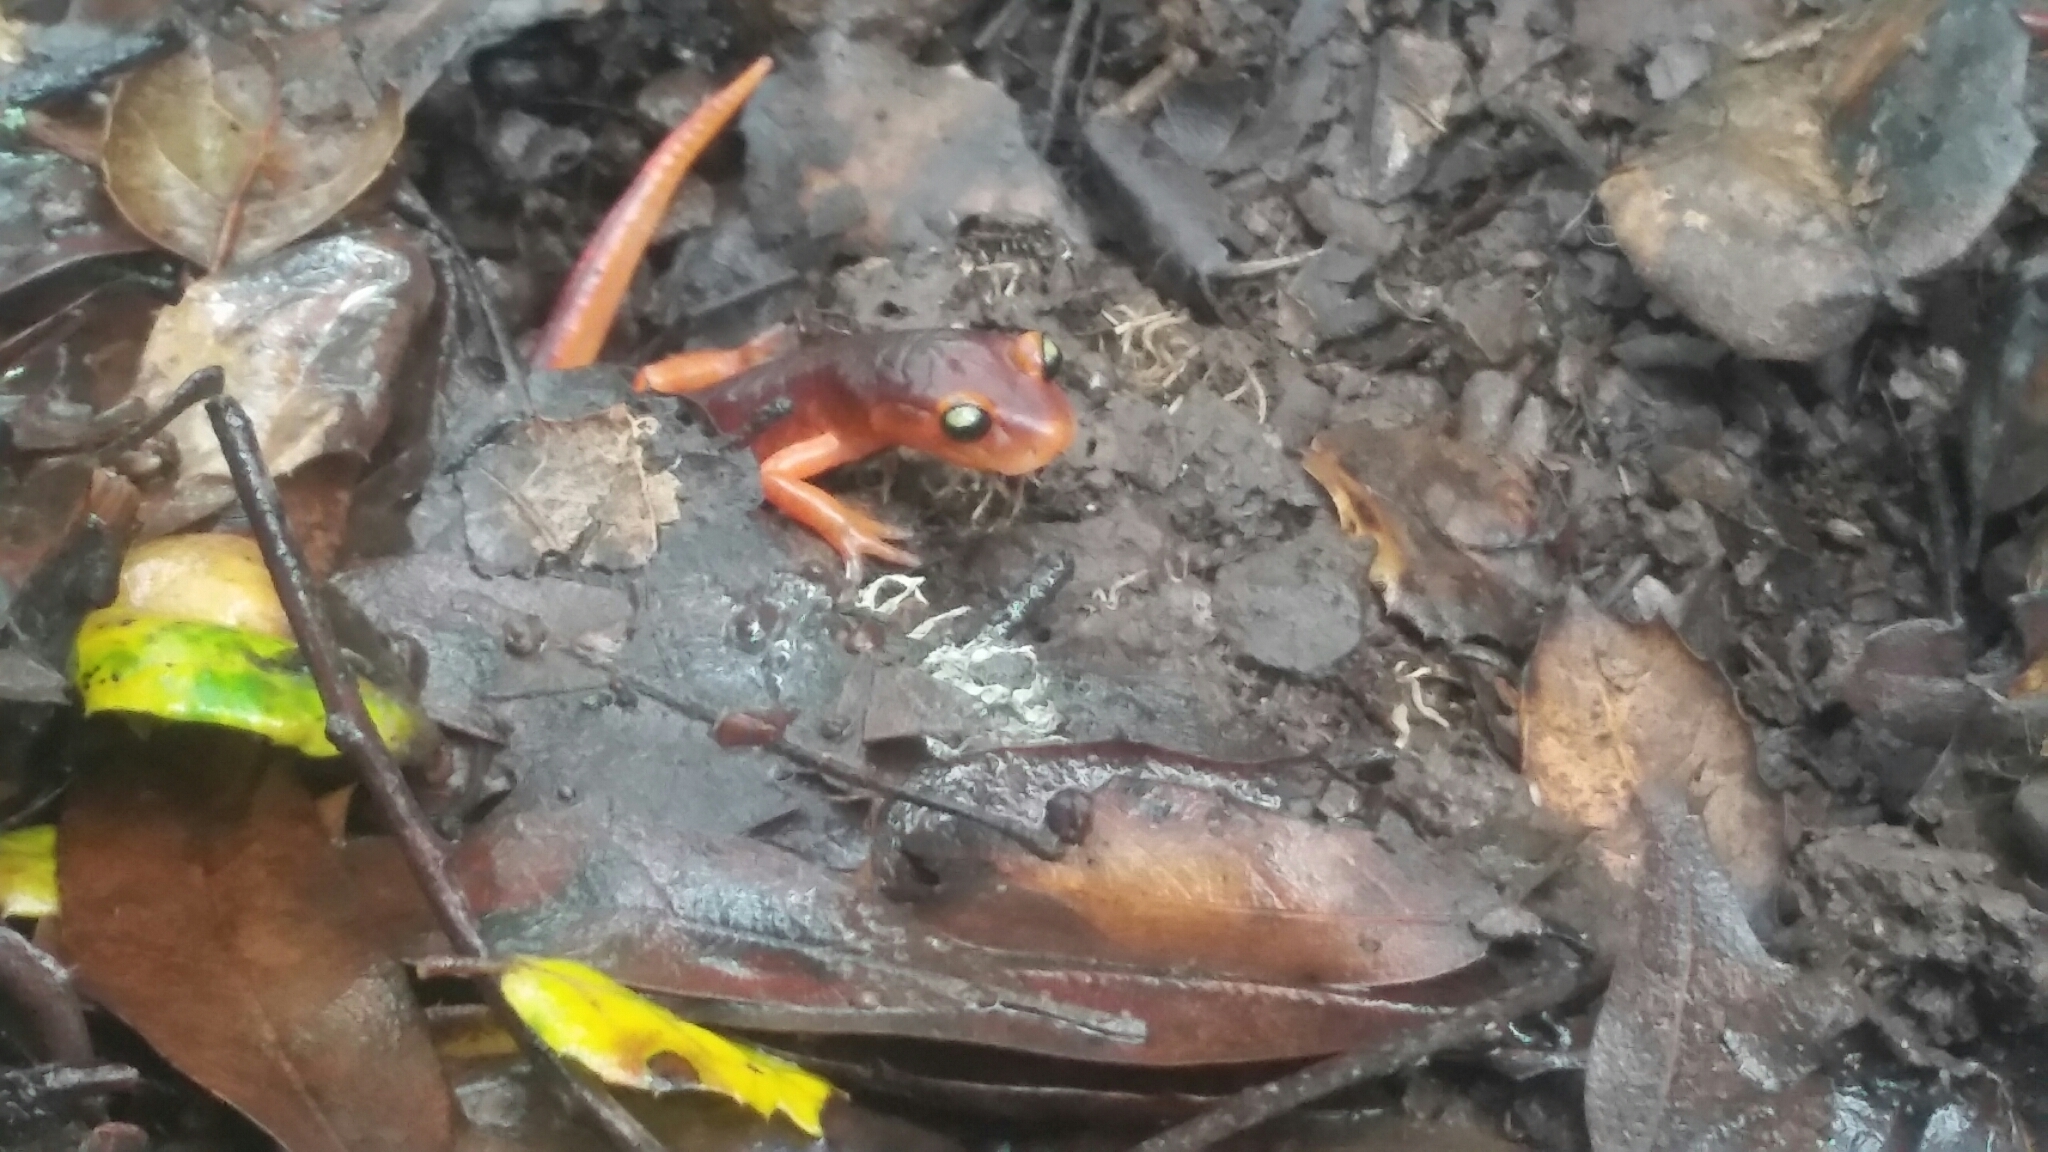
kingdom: Animalia
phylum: Chordata
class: Amphibia
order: Caudata
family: Plethodontidae
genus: Ensatina
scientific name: Ensatina eschscholtzii
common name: Ensatina
